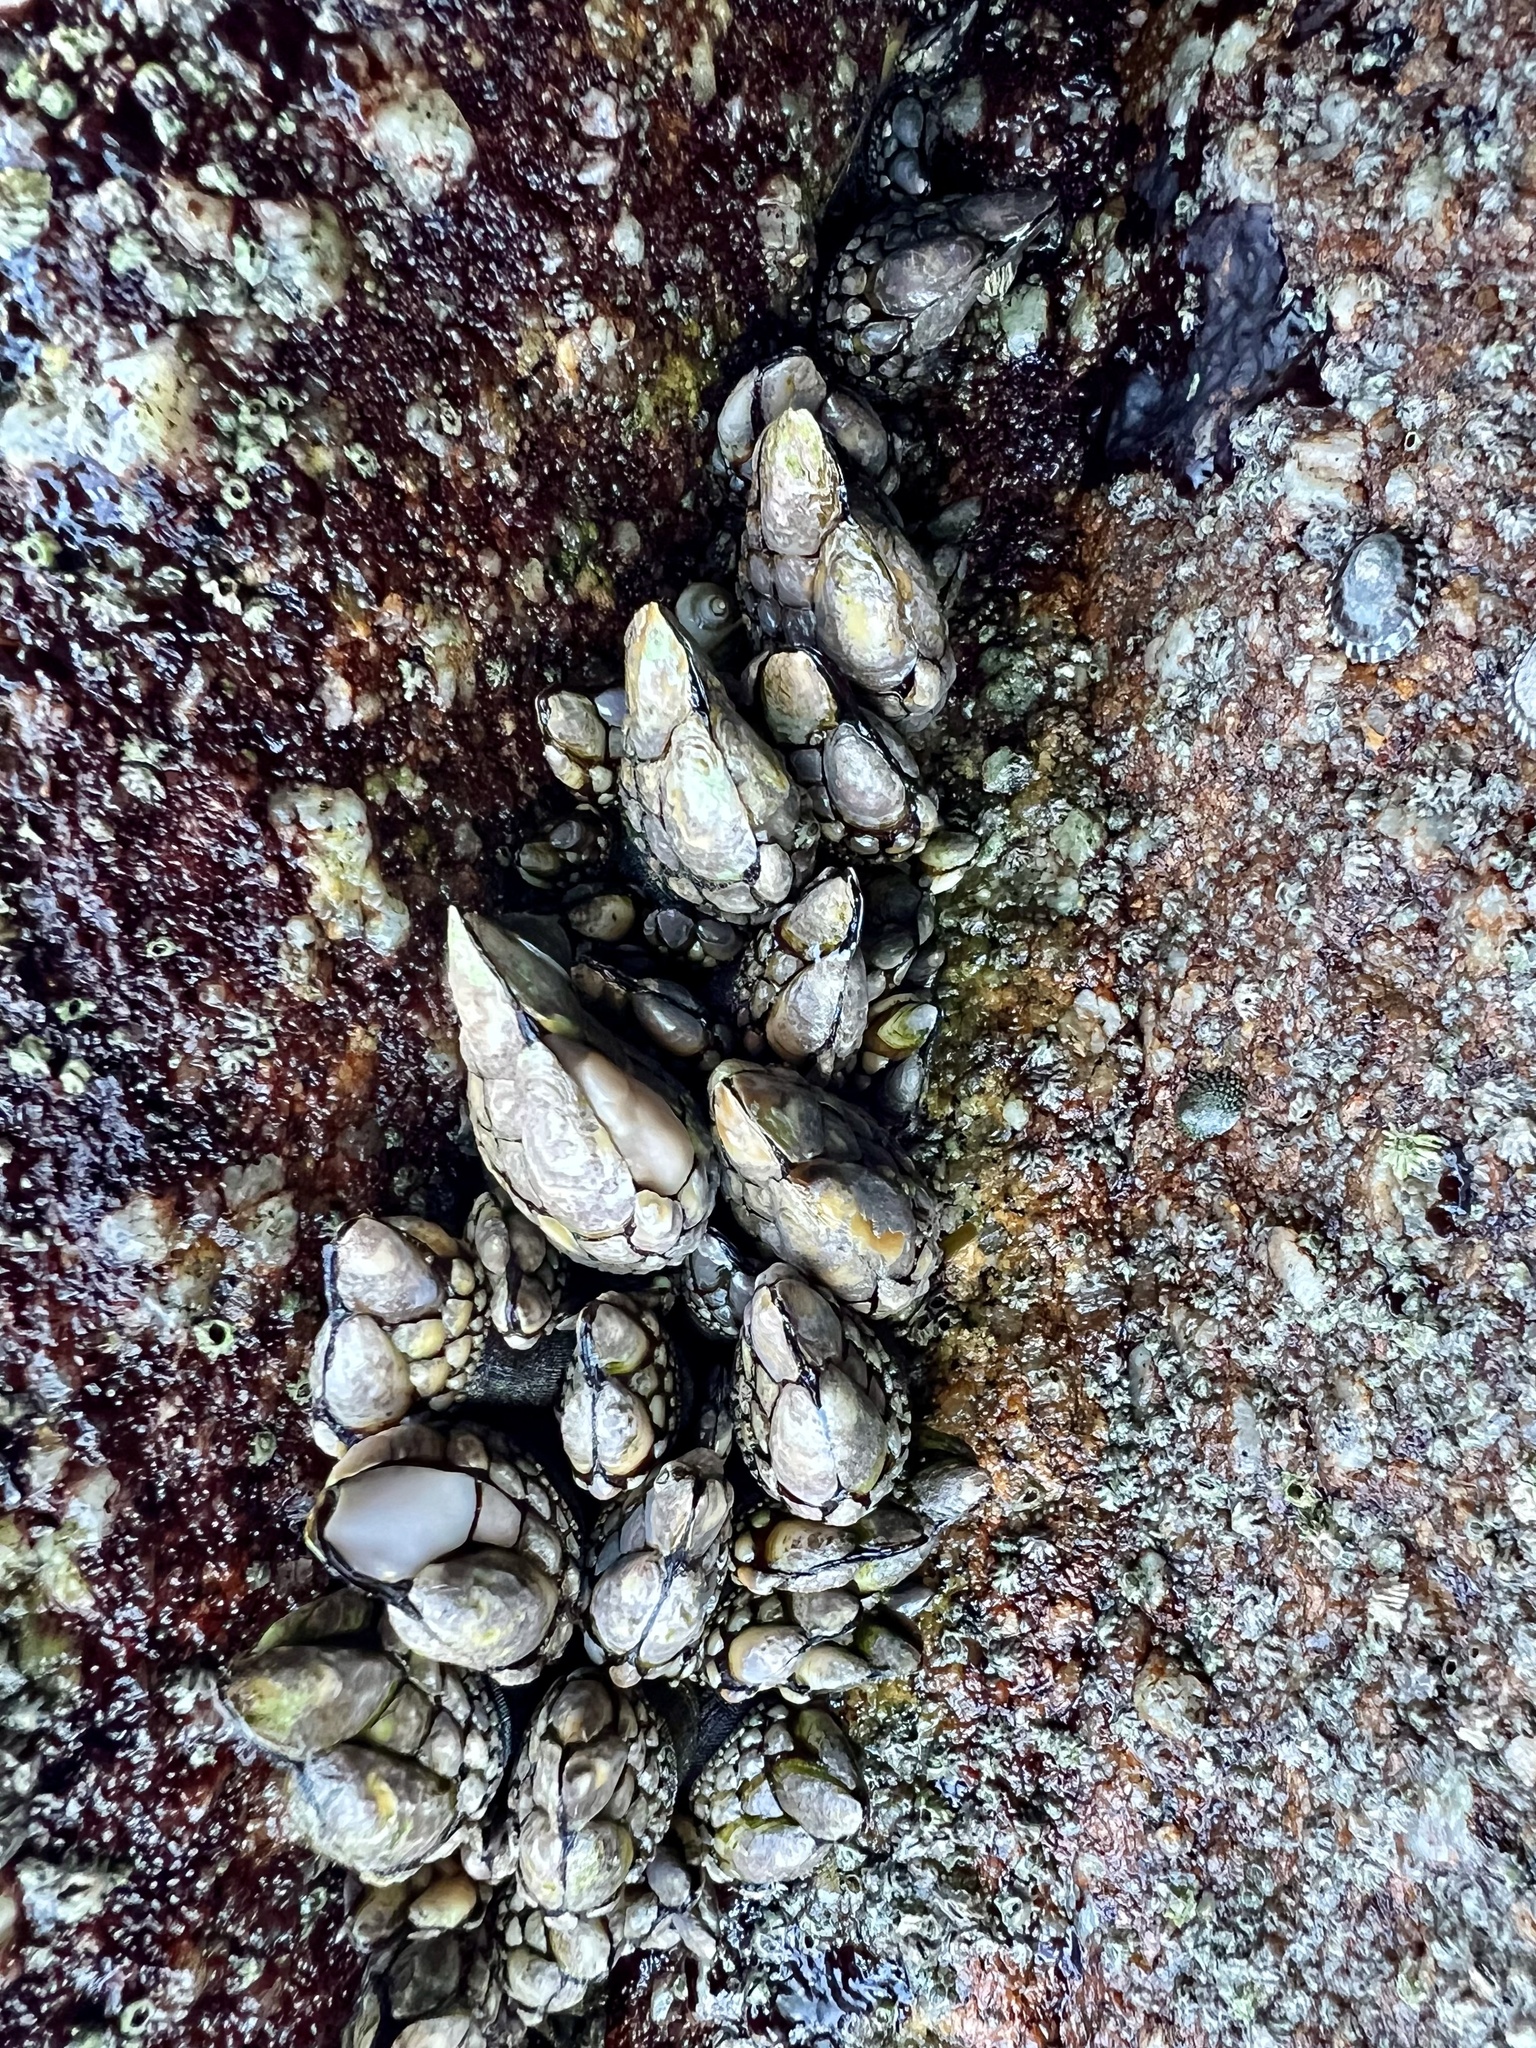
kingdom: Animalia
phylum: Arthropoda
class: Maxillopoda
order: Pedunculata
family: Pollicipedidae
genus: Pollicipes
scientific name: Pollicipes polymerus
